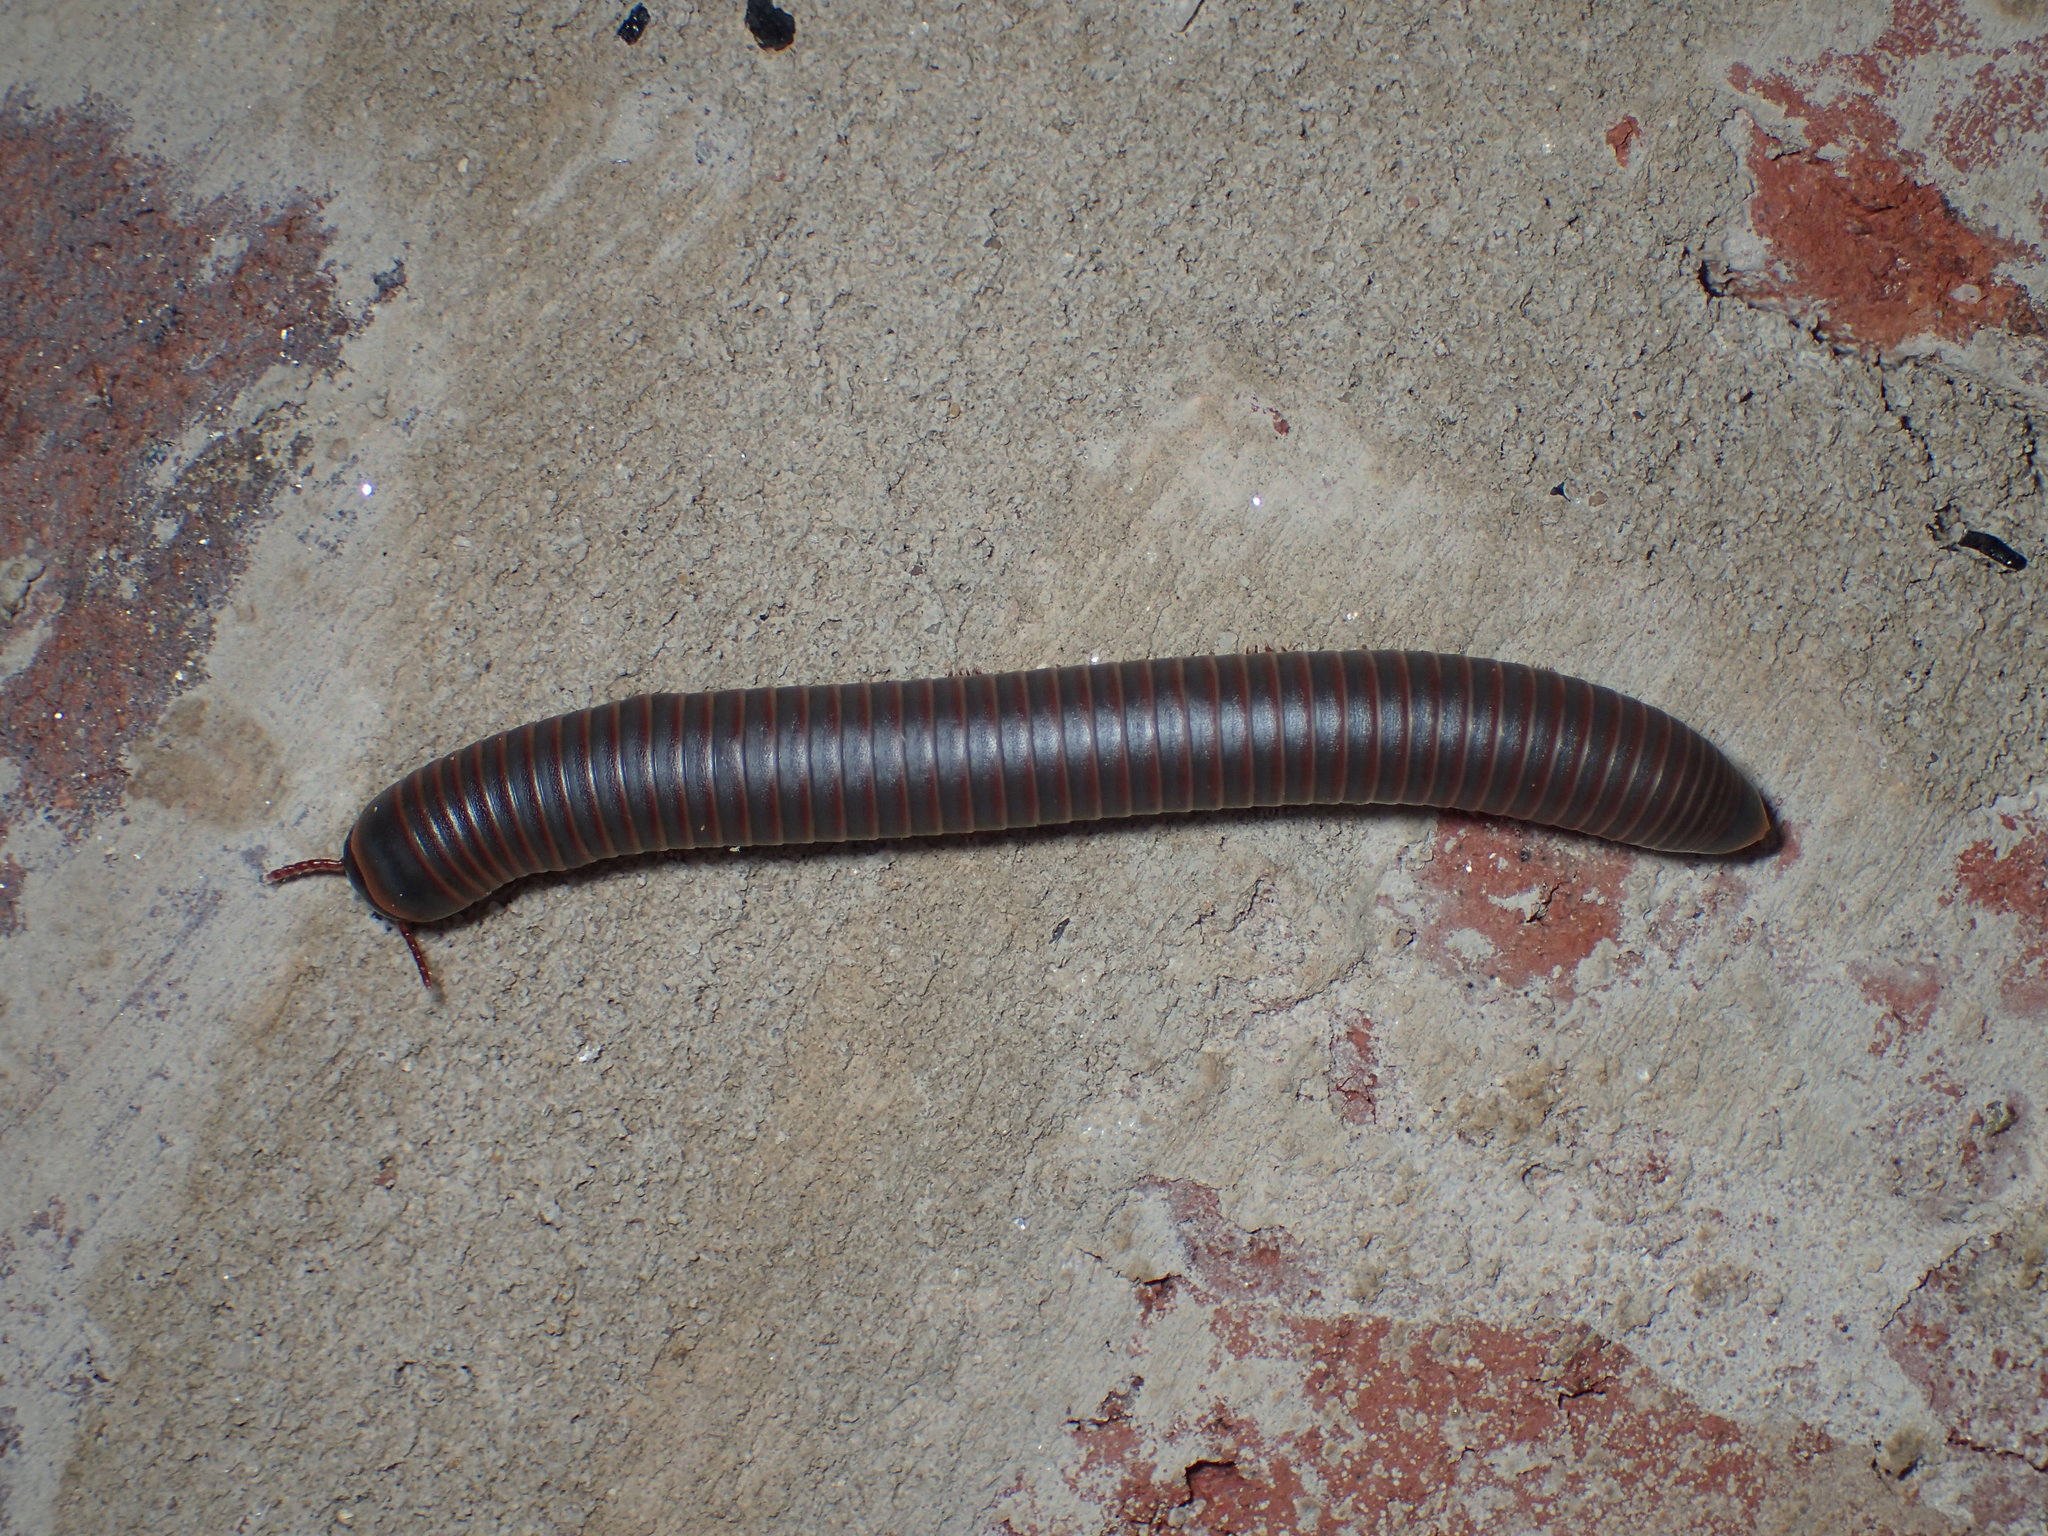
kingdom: Animalia
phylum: Arthropoda
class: Diplopoda
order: Spirobolida
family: Spirobolidae
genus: Narceus
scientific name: Narceus
